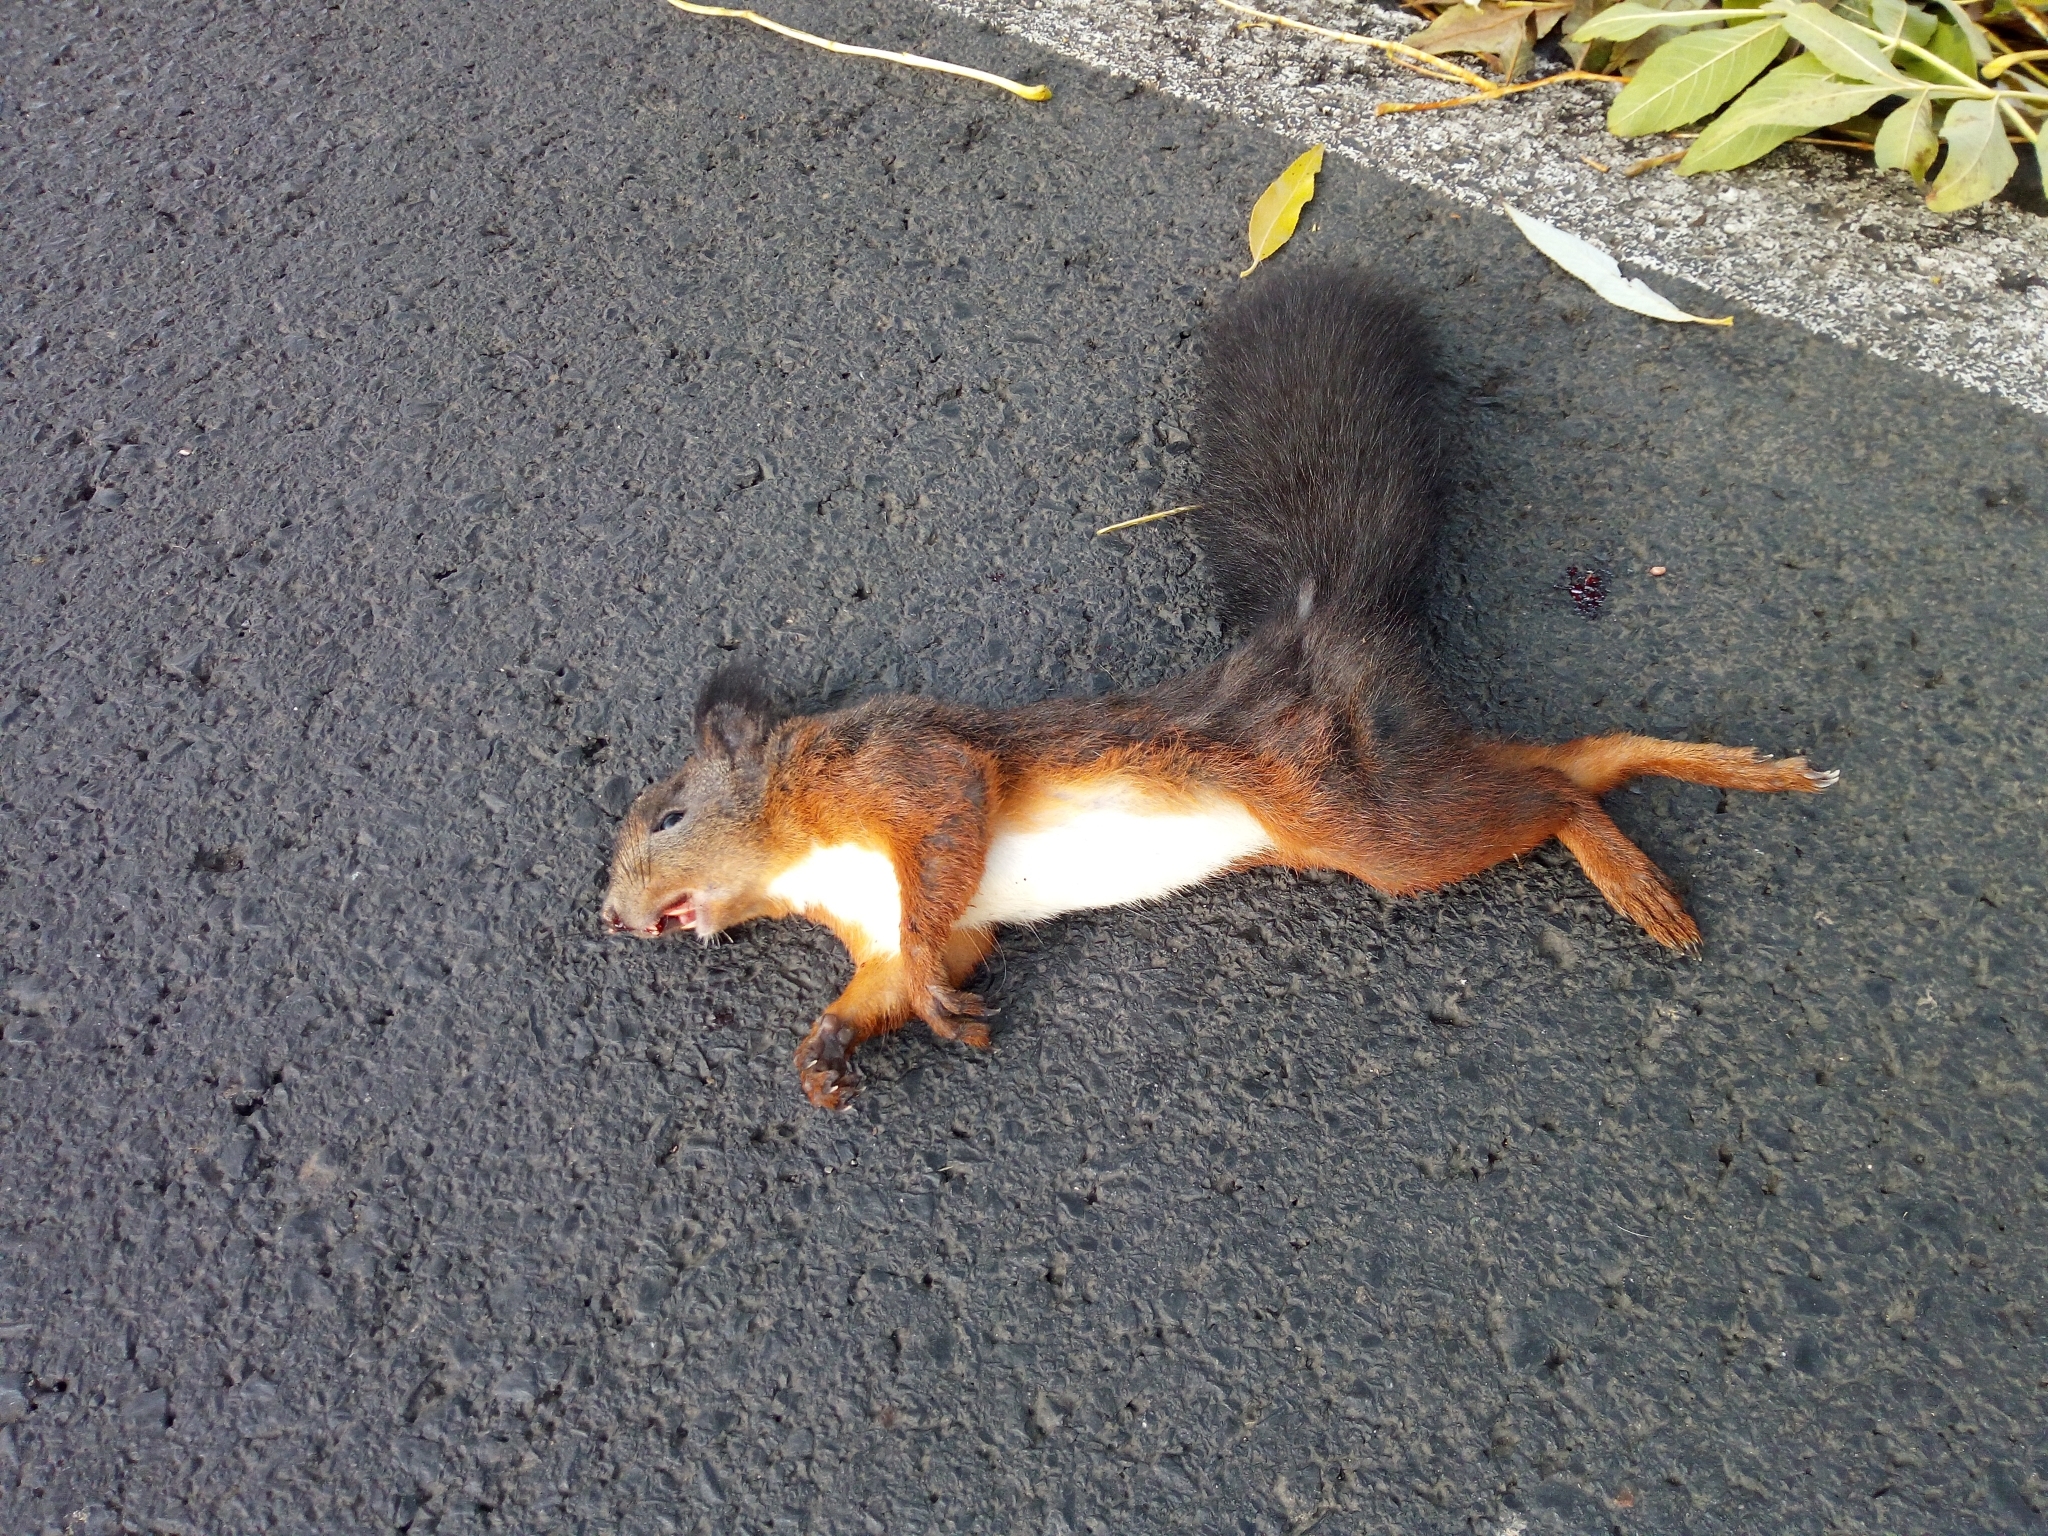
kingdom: Animalia
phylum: Chordata
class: Mammalia
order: Rodentia
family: Sciuridae
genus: Sciurus
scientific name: Sciurus vulgaris
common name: Eurasian red squirrel
